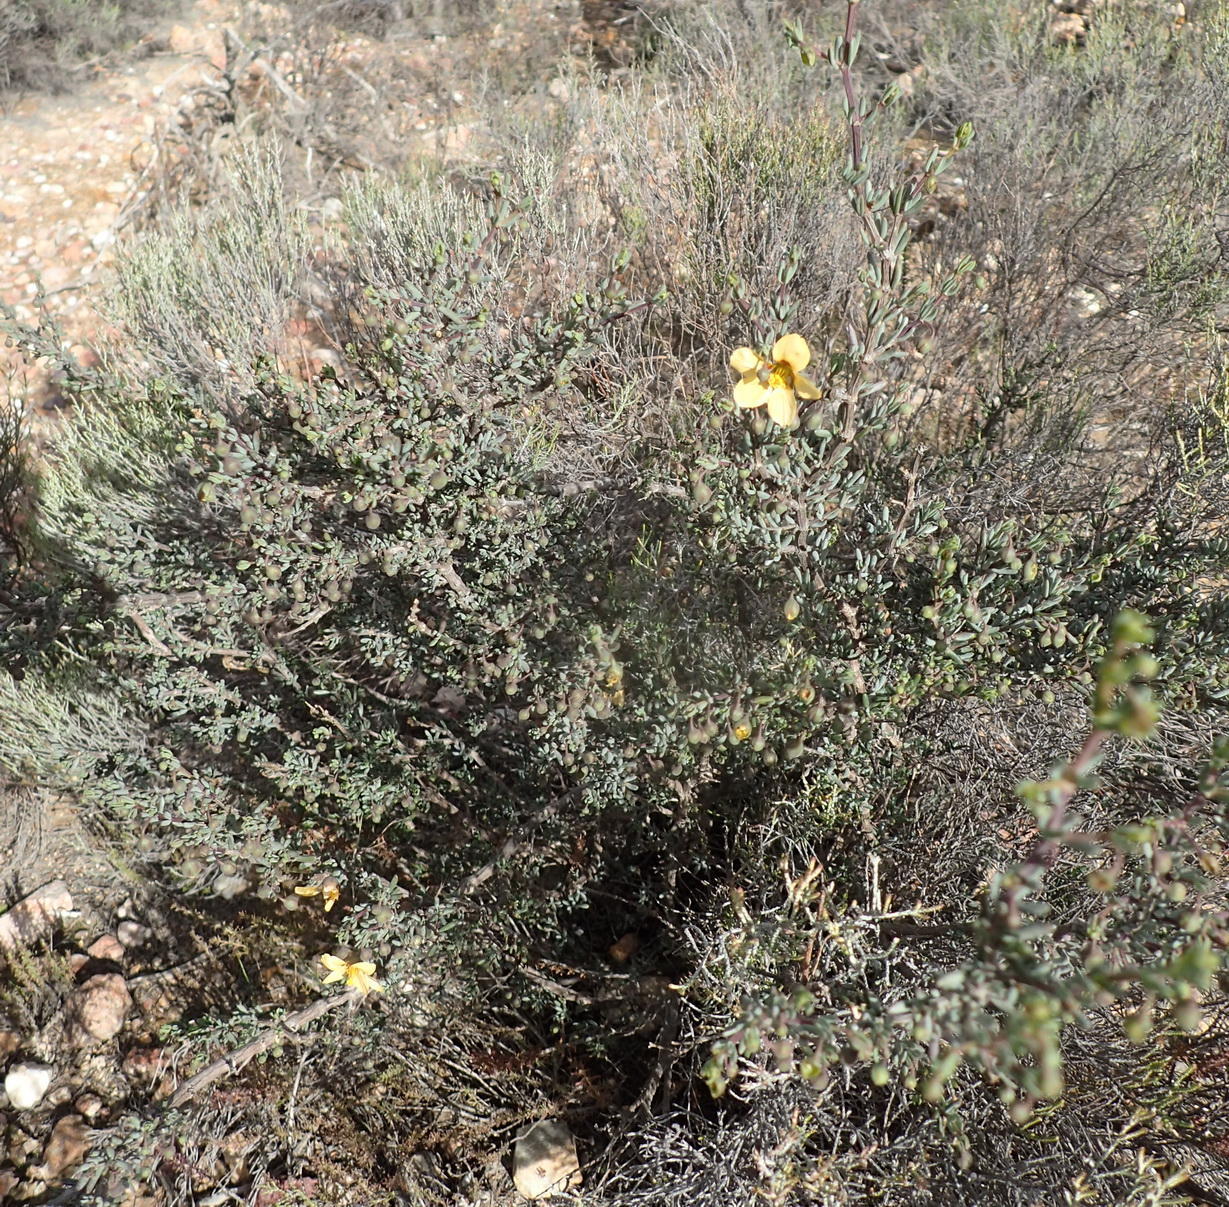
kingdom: Plantae
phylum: Tracheophyta
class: Magnoliopsida
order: Zygophyllales
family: Zygophyllaceae
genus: Roepera
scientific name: Roepera pygmaea
